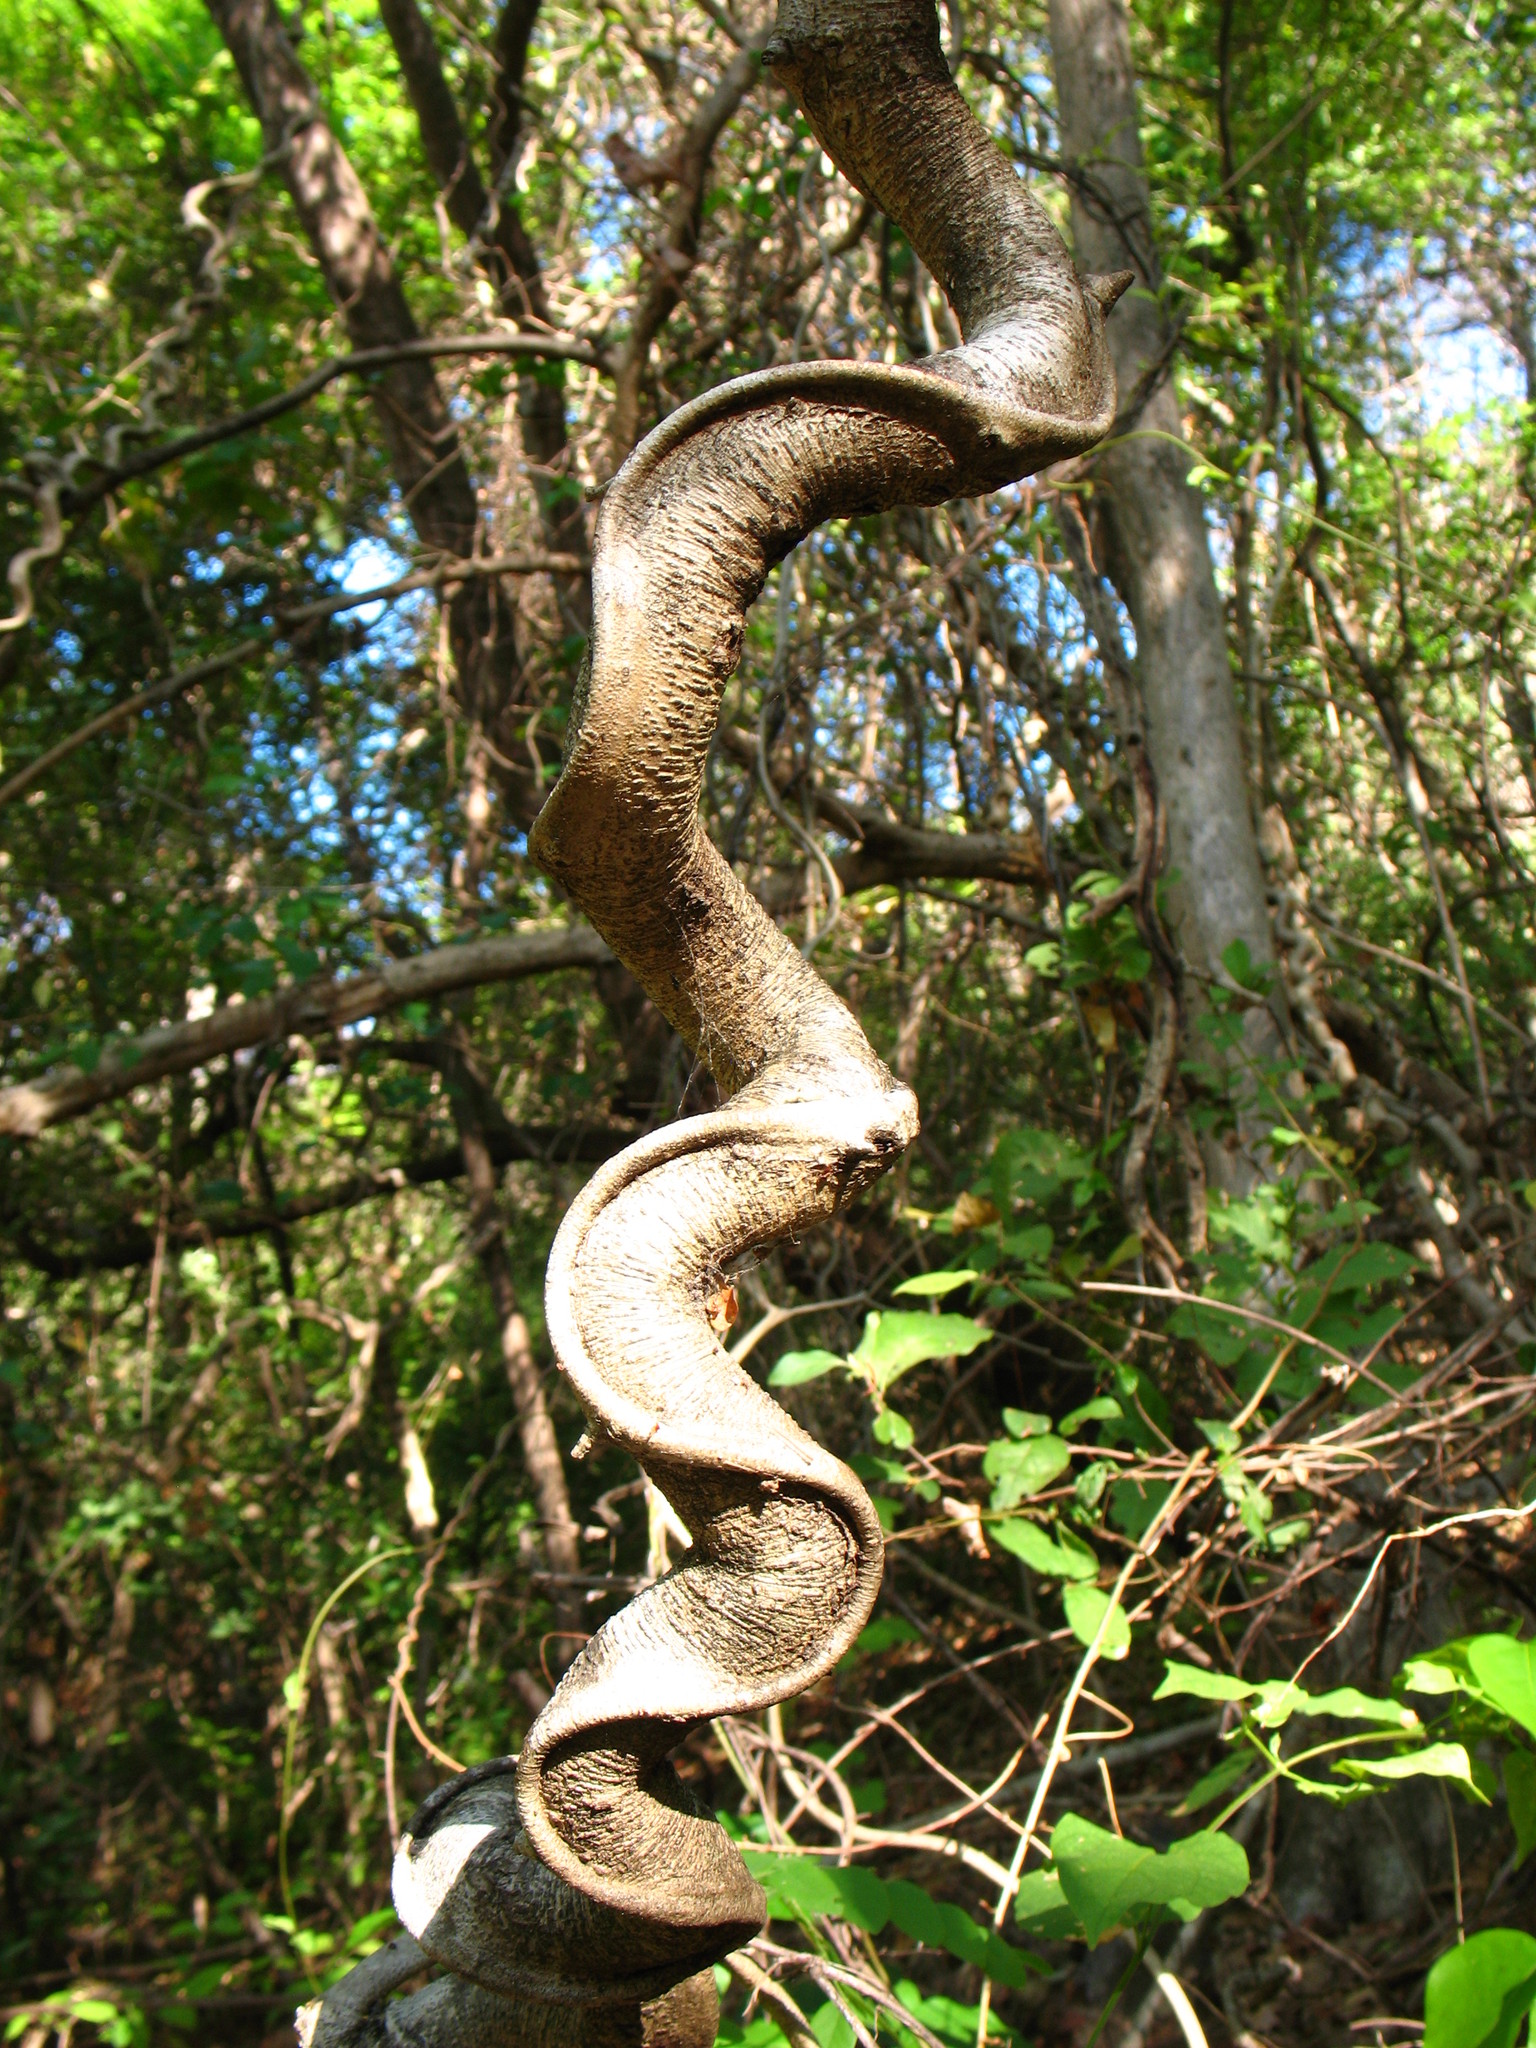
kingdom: Plantae
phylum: Tracheophyta
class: Magnoliopsida
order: Fabales
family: Fabaceae
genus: Schnella
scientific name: Schnella glabra
